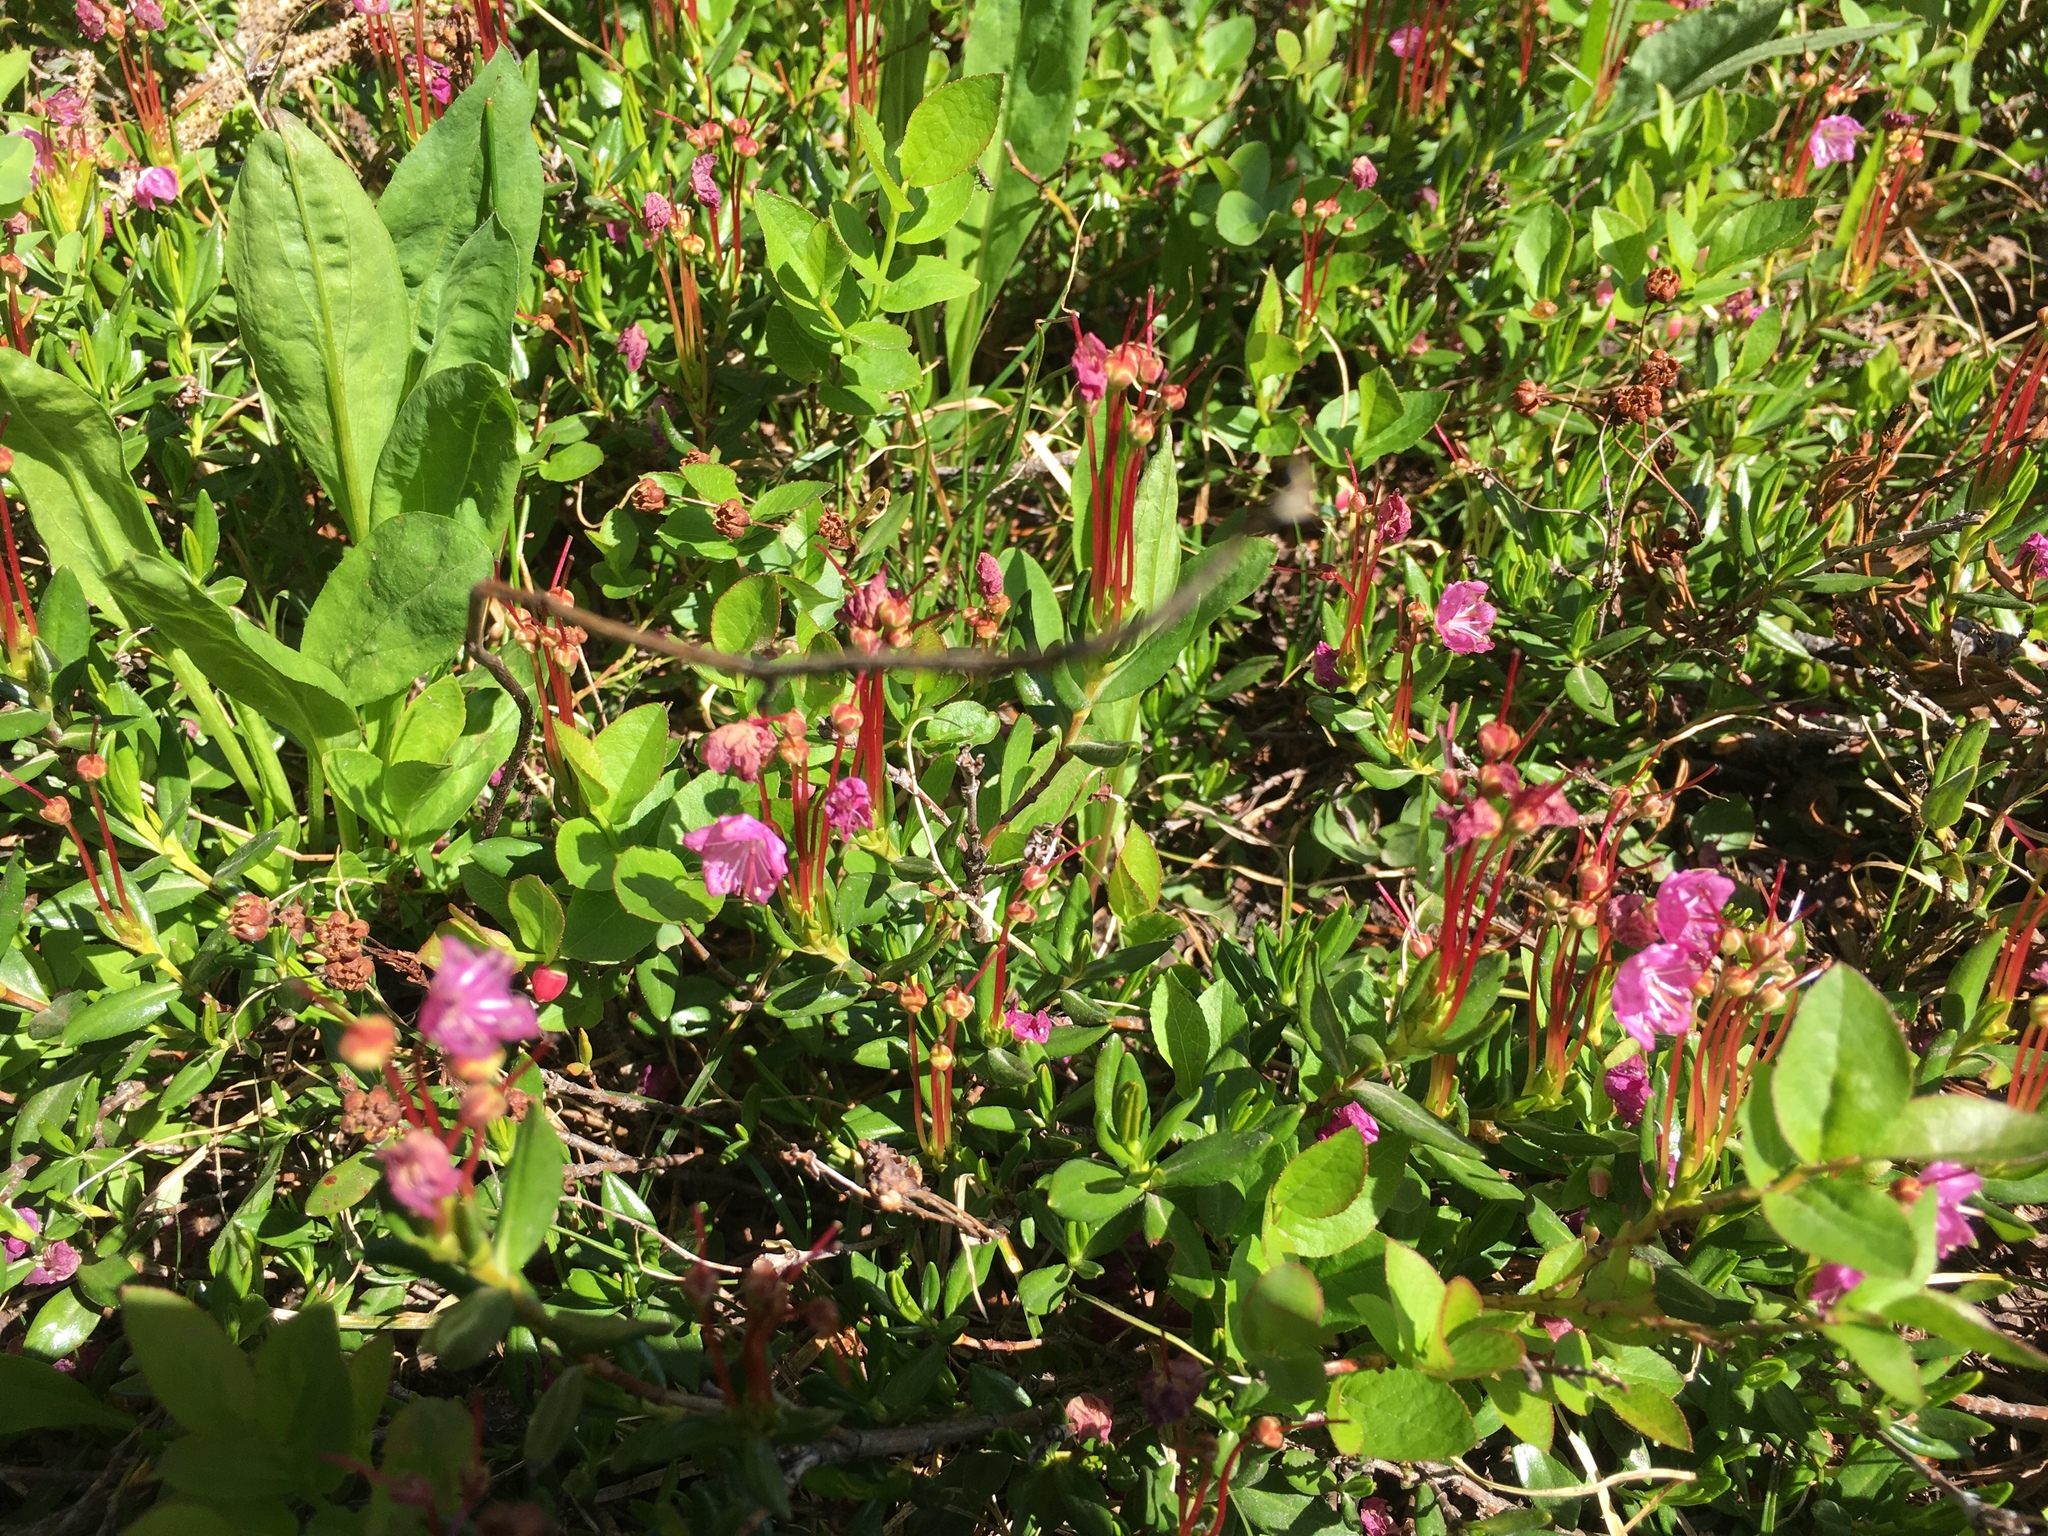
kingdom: Plantae
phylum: Tracheophyta
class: Magnoliopsida
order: Ericales
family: Ericaceae
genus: Kalmia
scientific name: Kalmia microphylla
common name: Alpine bog laurel
